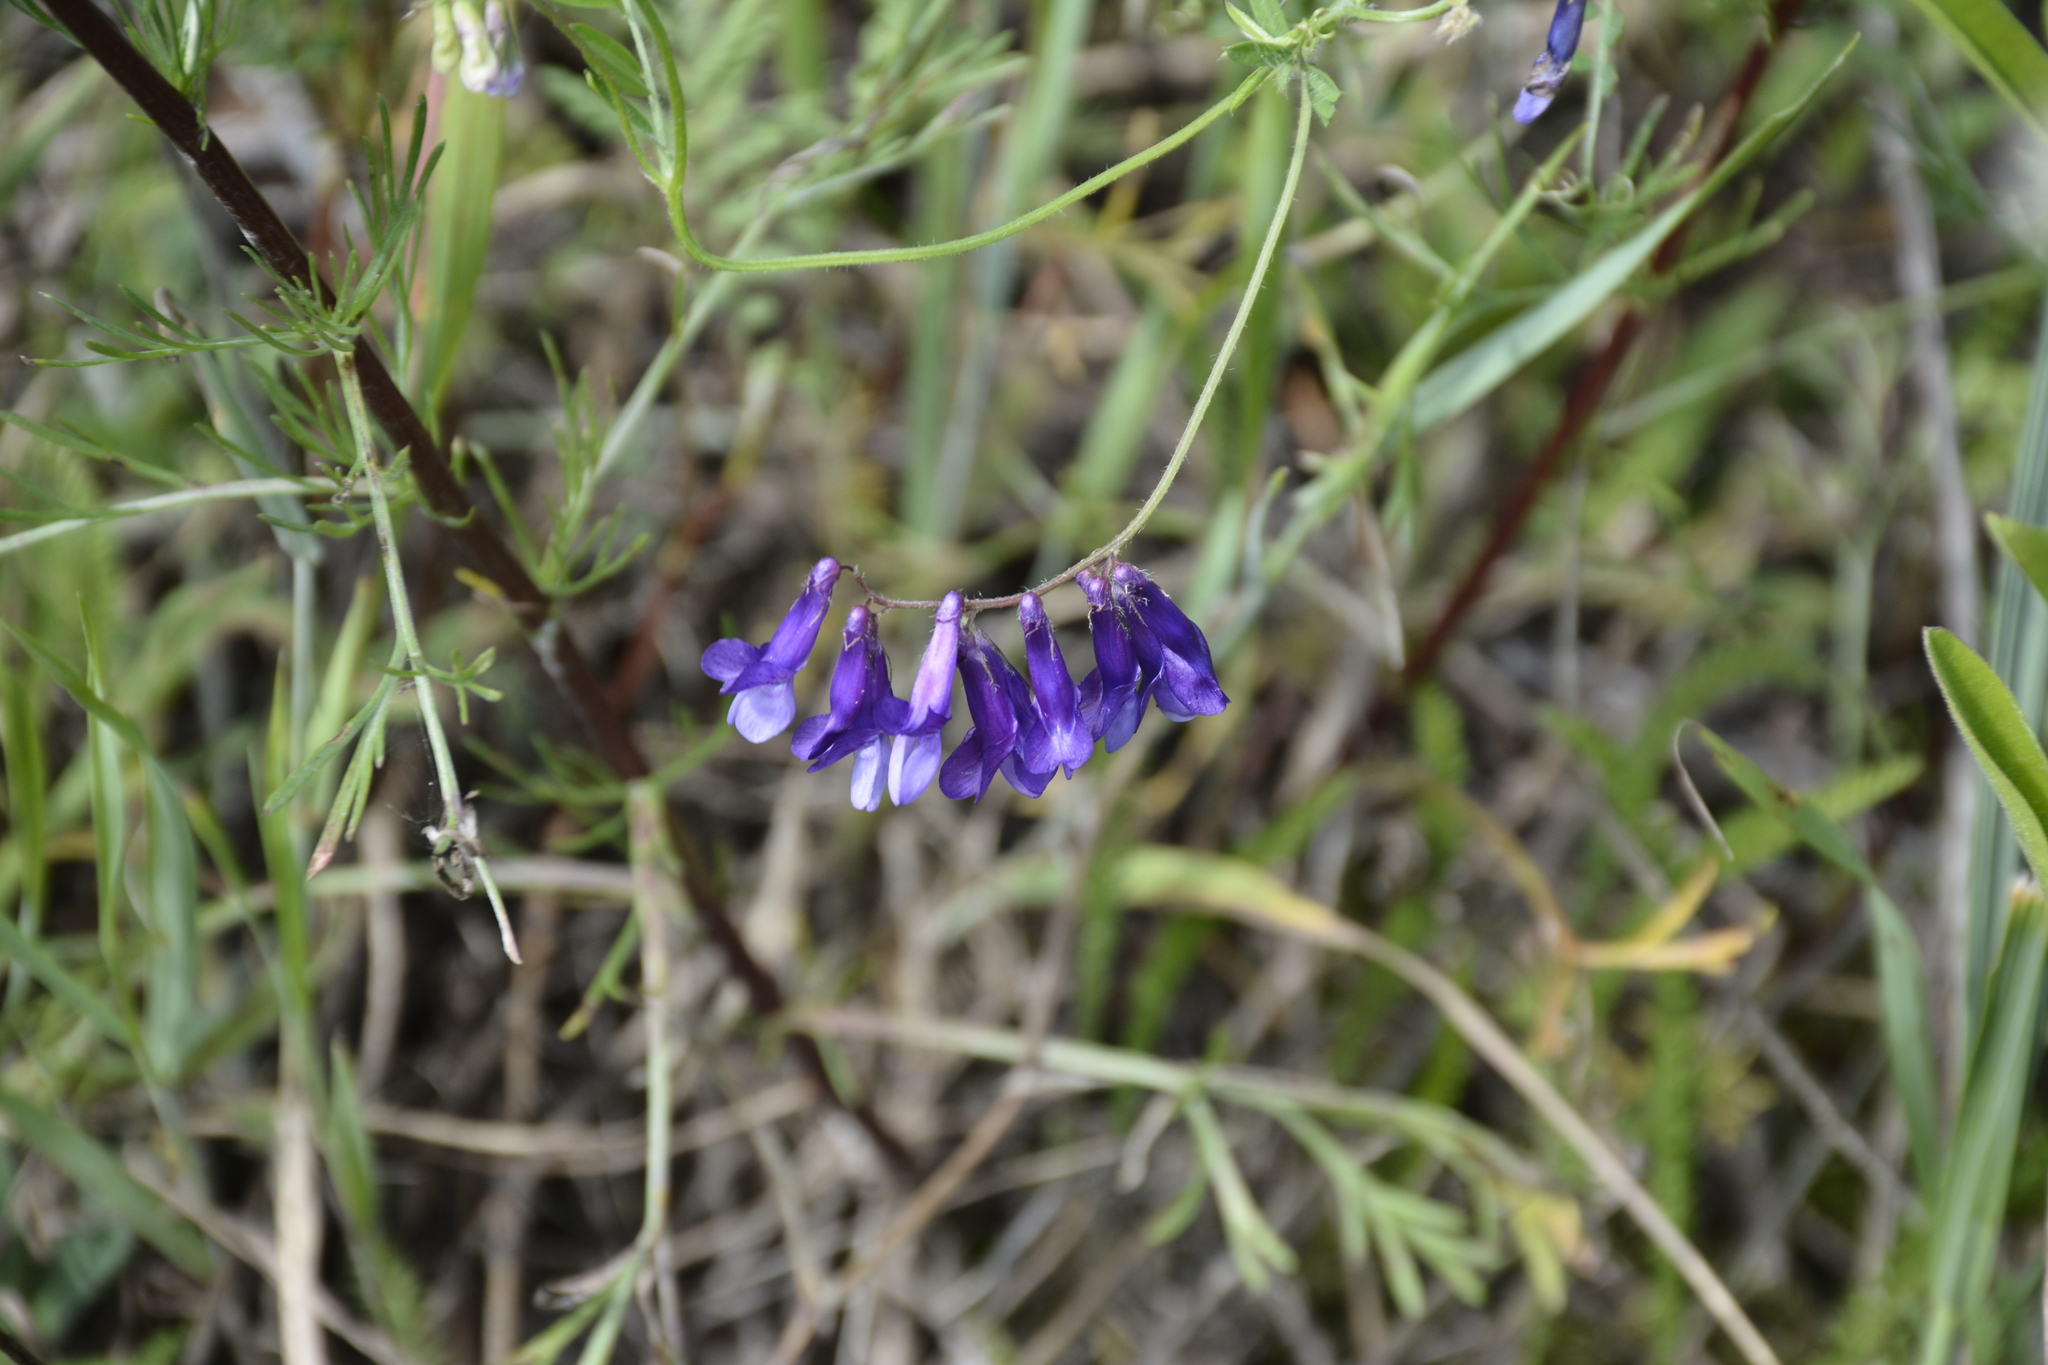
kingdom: Plantae
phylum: Tracheophyta
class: Magnoliopsida
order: Fabales
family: Fabaceae
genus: Vicia
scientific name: Vicia villosa
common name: Fodder vetch
